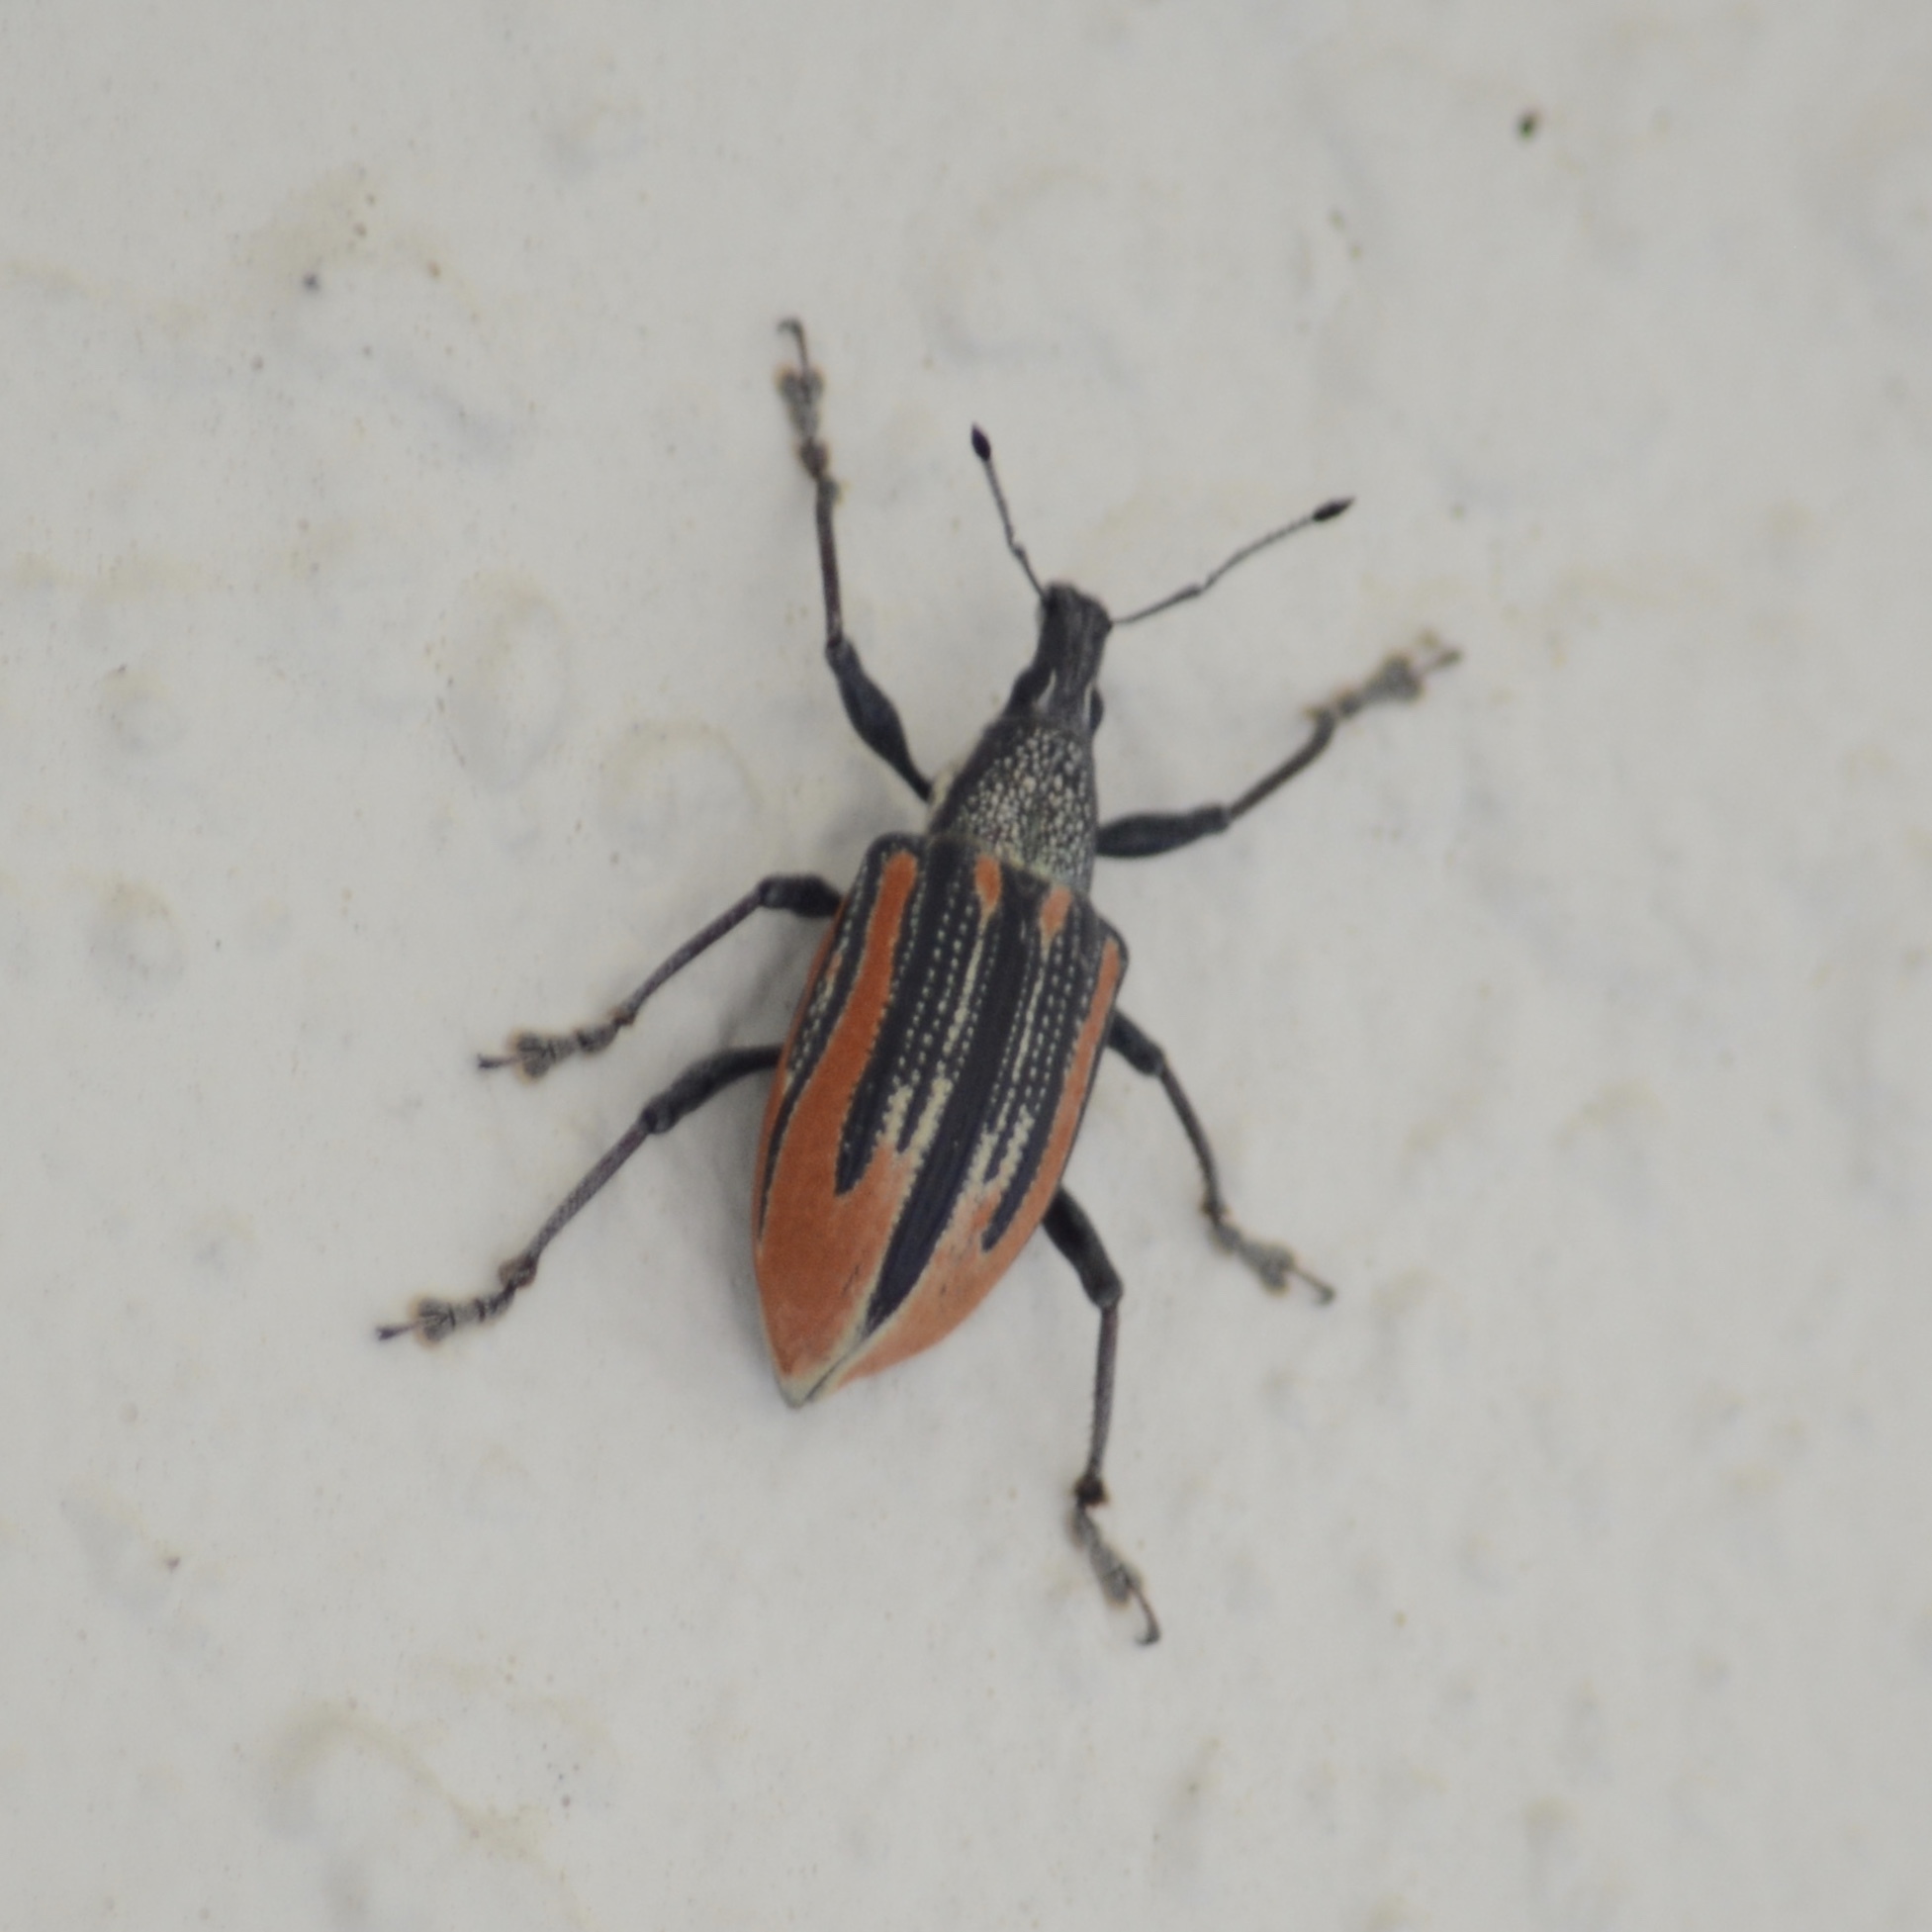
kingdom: Animalia
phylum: Arthropoda
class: Insecta
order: Coleoptera
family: Curculionidae
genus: Diaprepes
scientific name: Diaprepes abbreviatus
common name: Root weevil
